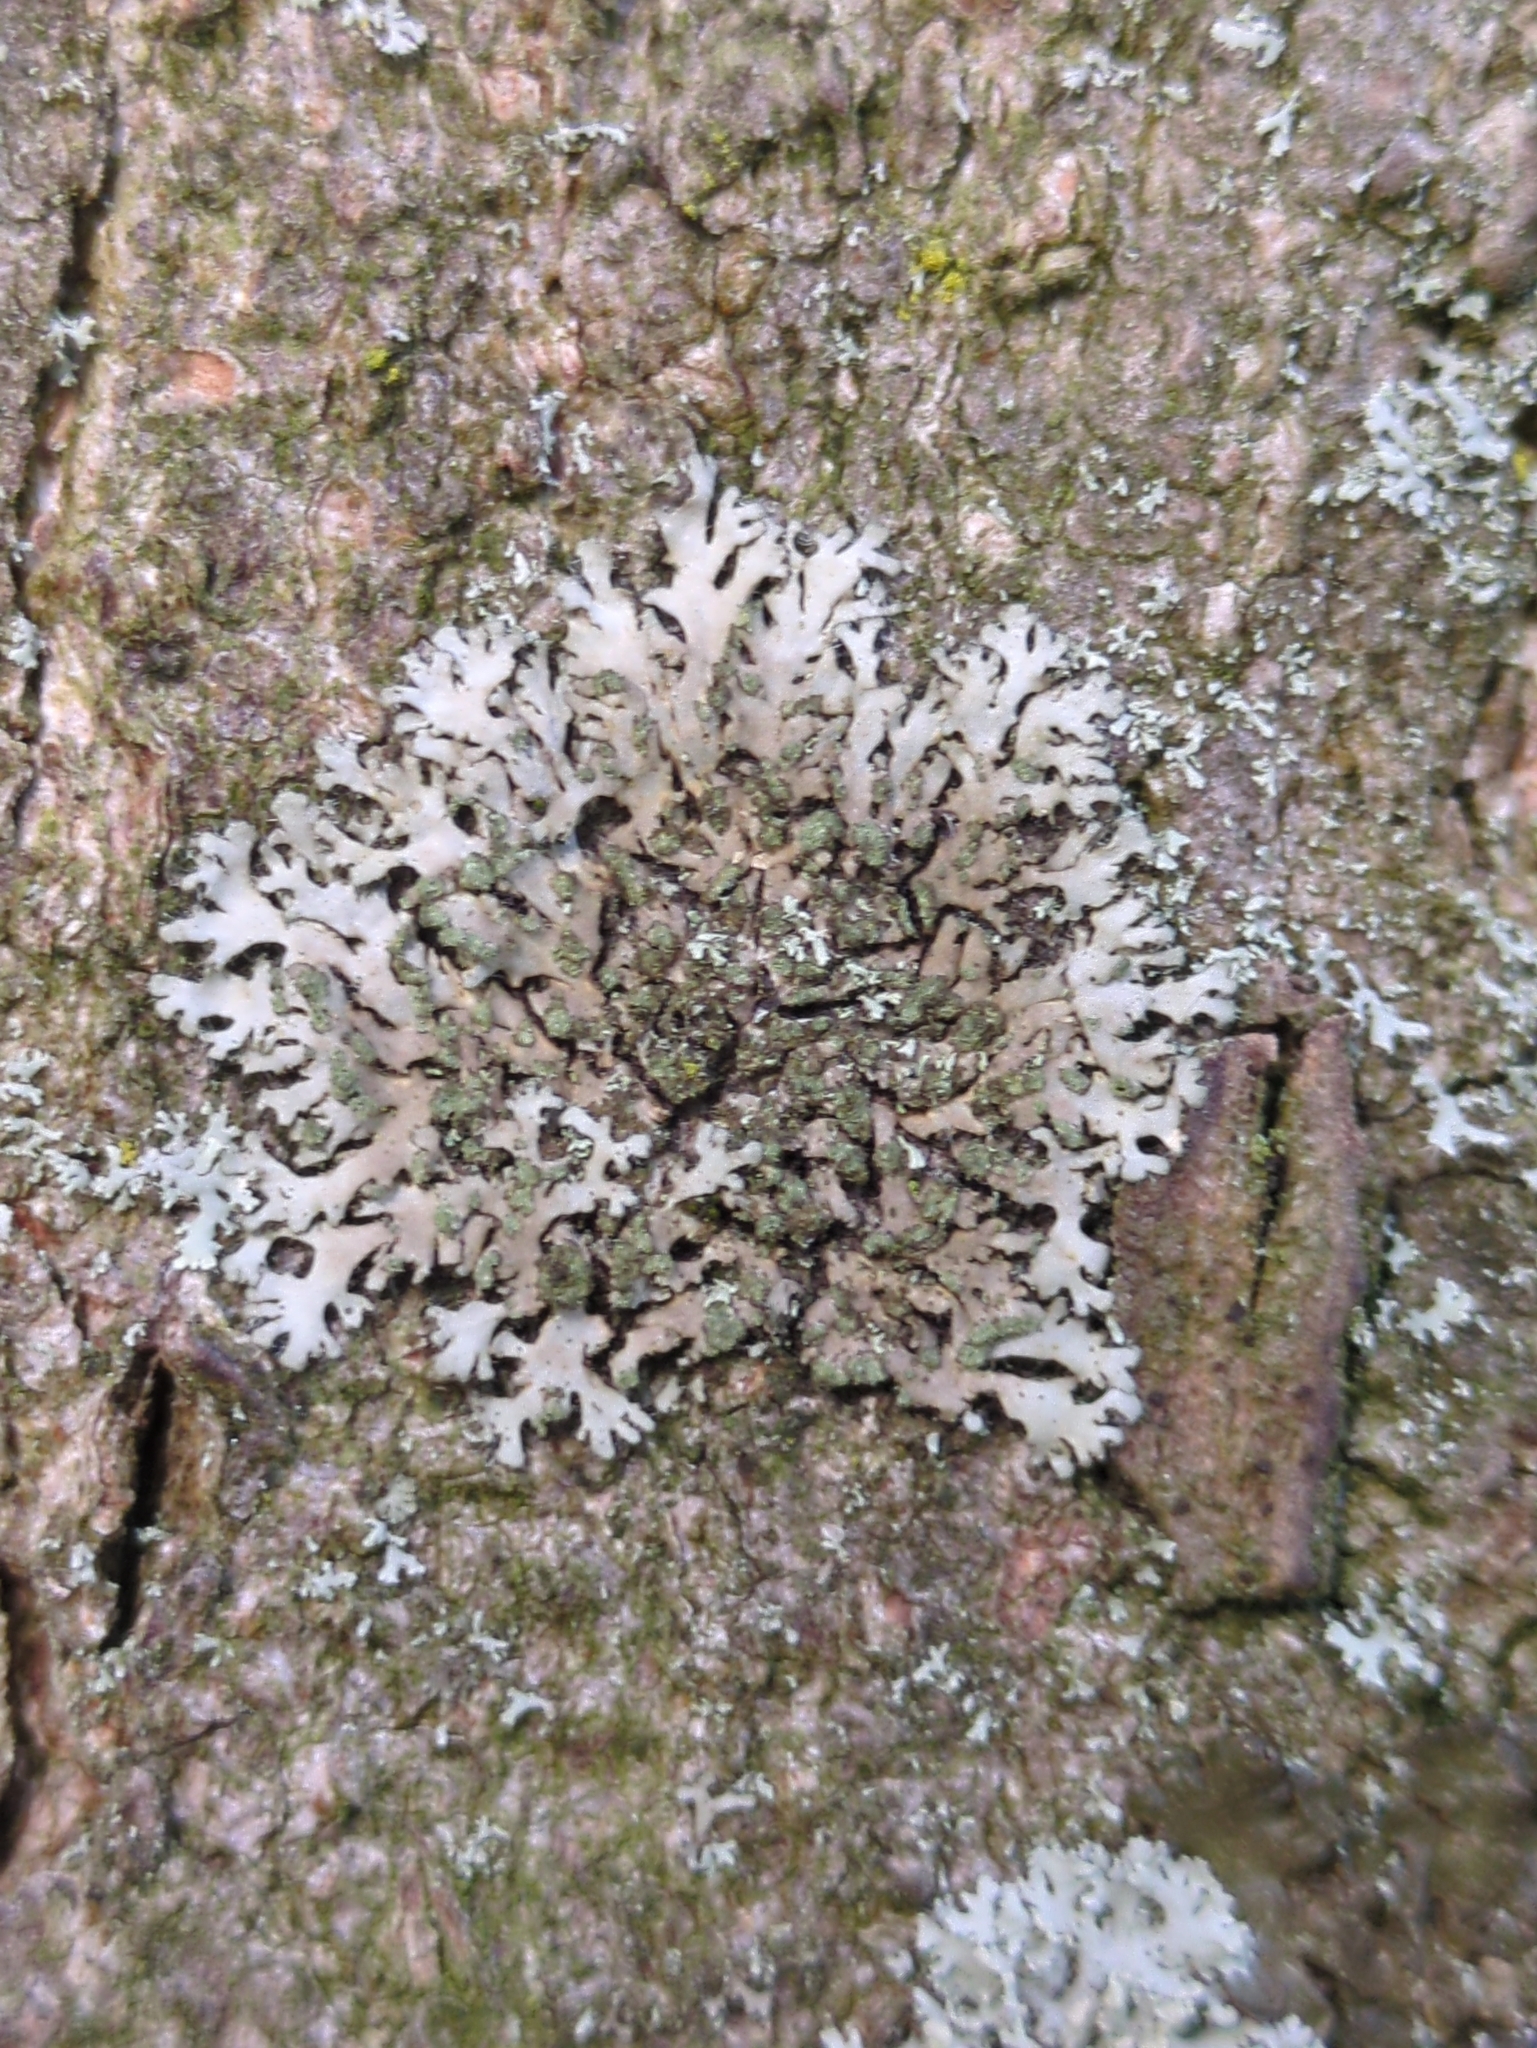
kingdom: Fungi
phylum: Ascomycota
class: Lecanoromycetes
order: Caliciales
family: Physciaceae
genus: Phaeophyscia
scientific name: Phaeophyscia orbicularis
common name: Mealy shadow lichen
